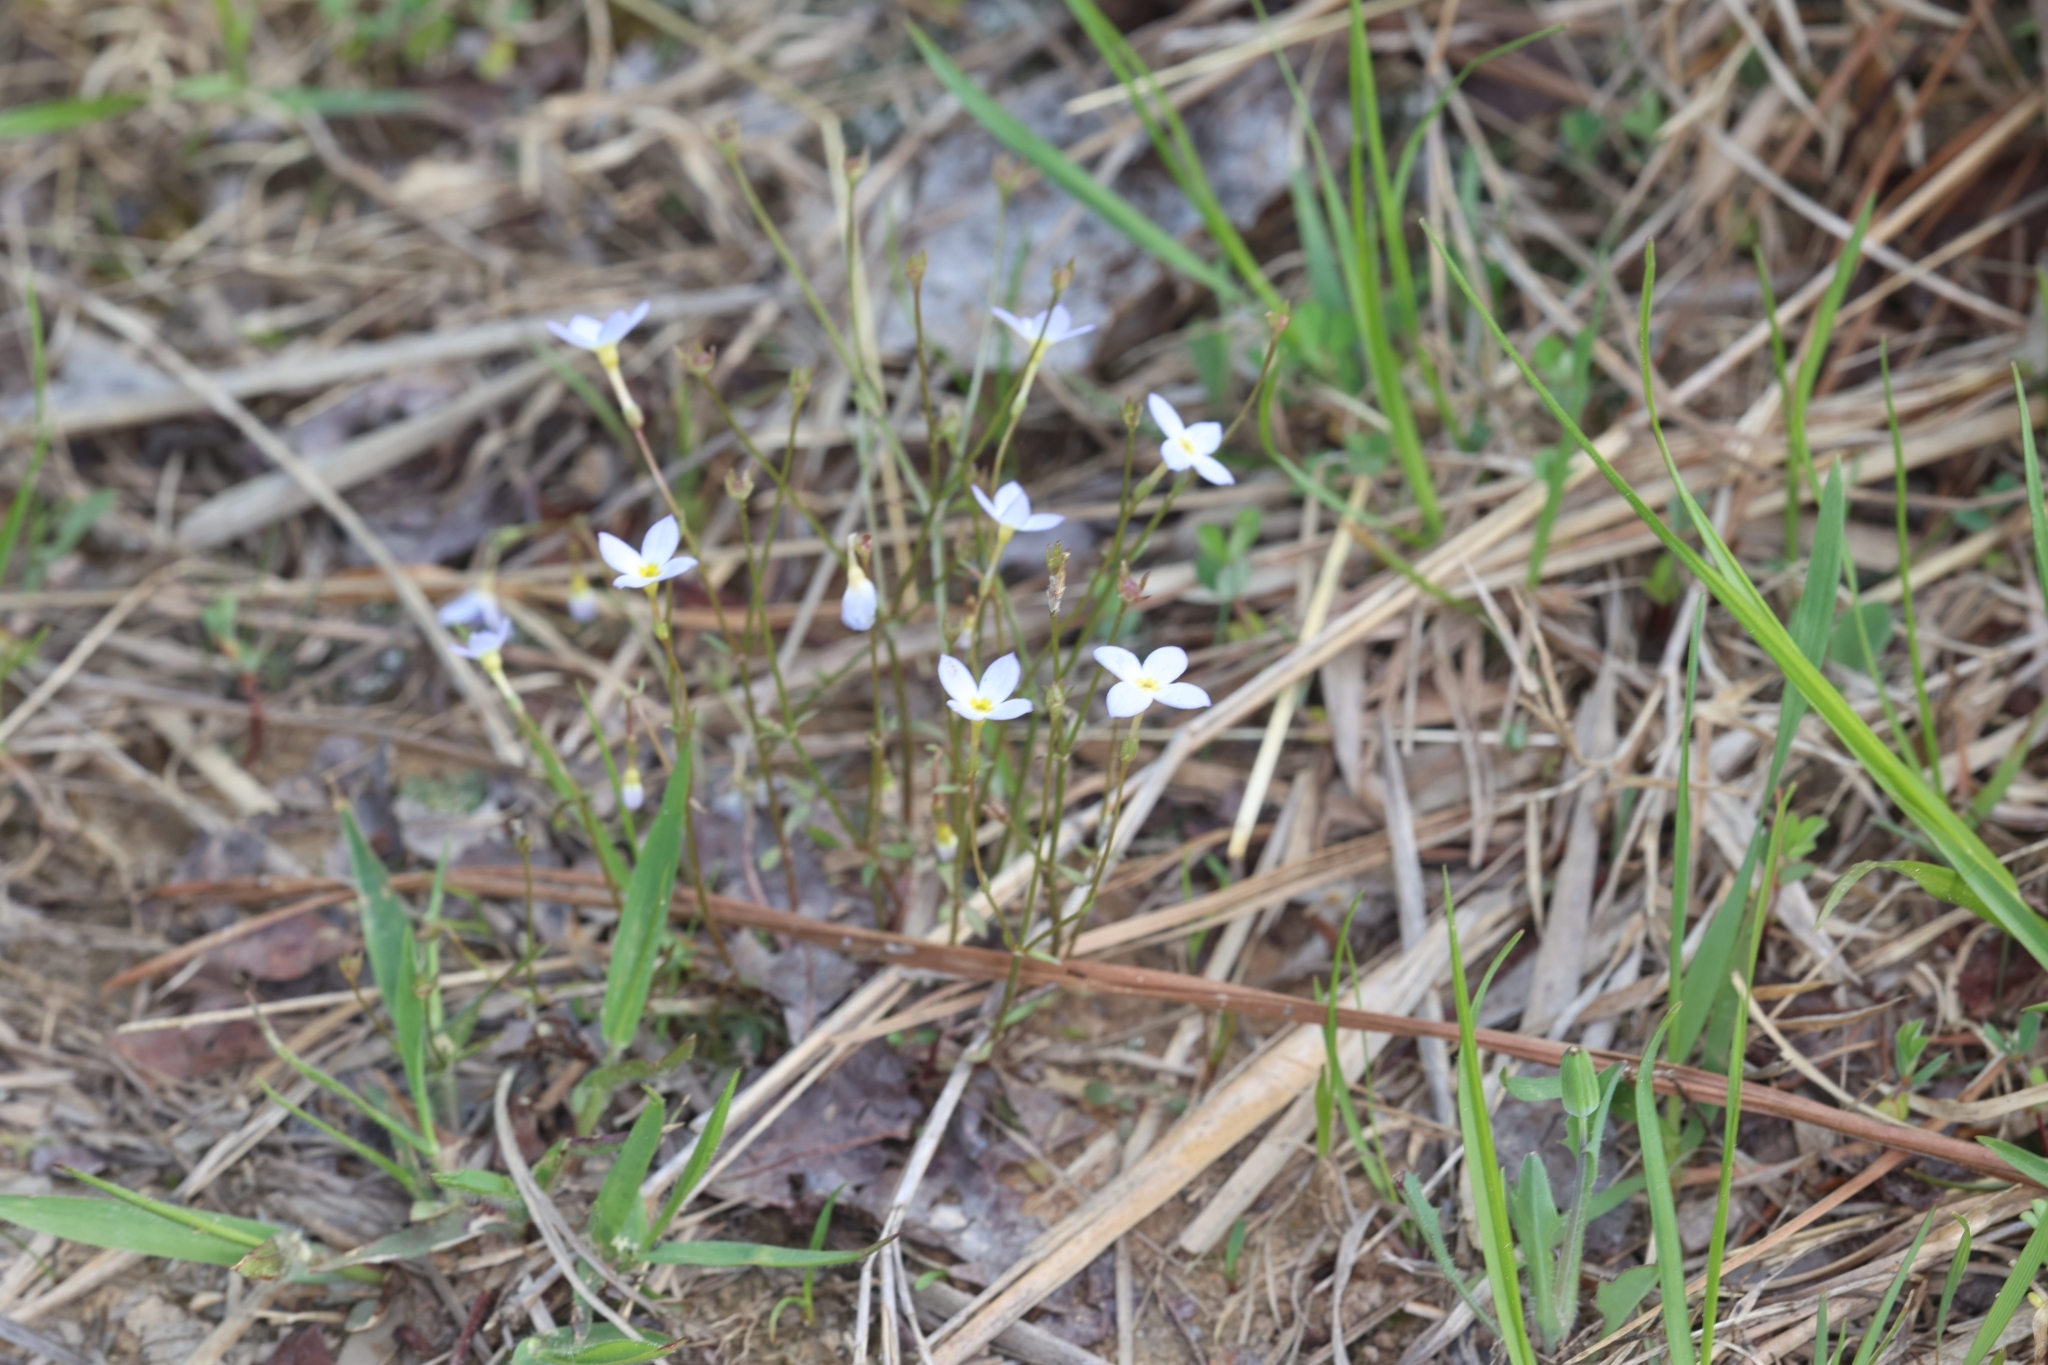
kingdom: Plantae
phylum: Tracheophyta
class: Magnoliopsida
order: Gentianales
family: Rubiaceae
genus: Houstonia
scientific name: Houstonia caerulea
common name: Bluets
